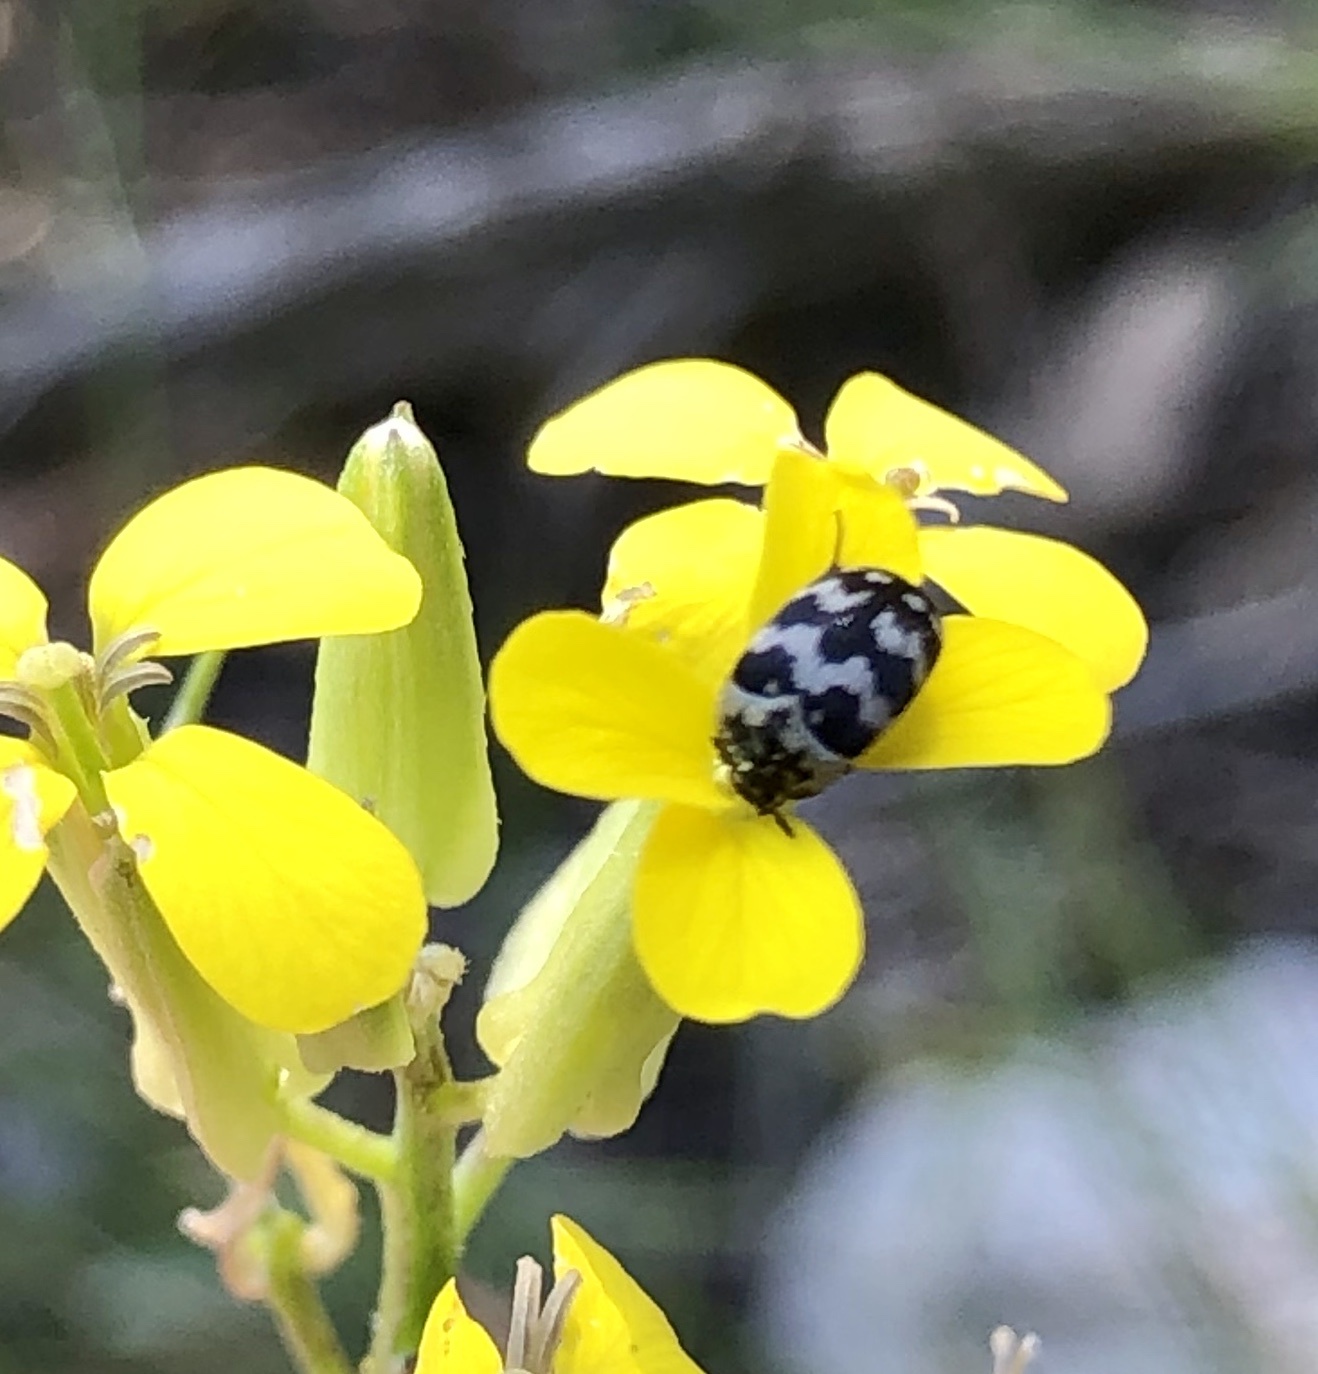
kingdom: Animalia
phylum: Arthropoda
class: Insecta
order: Coleoptera
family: Dermestidae
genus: Attagenus
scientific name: Attagenus trifasciatus
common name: Carpet beetle
